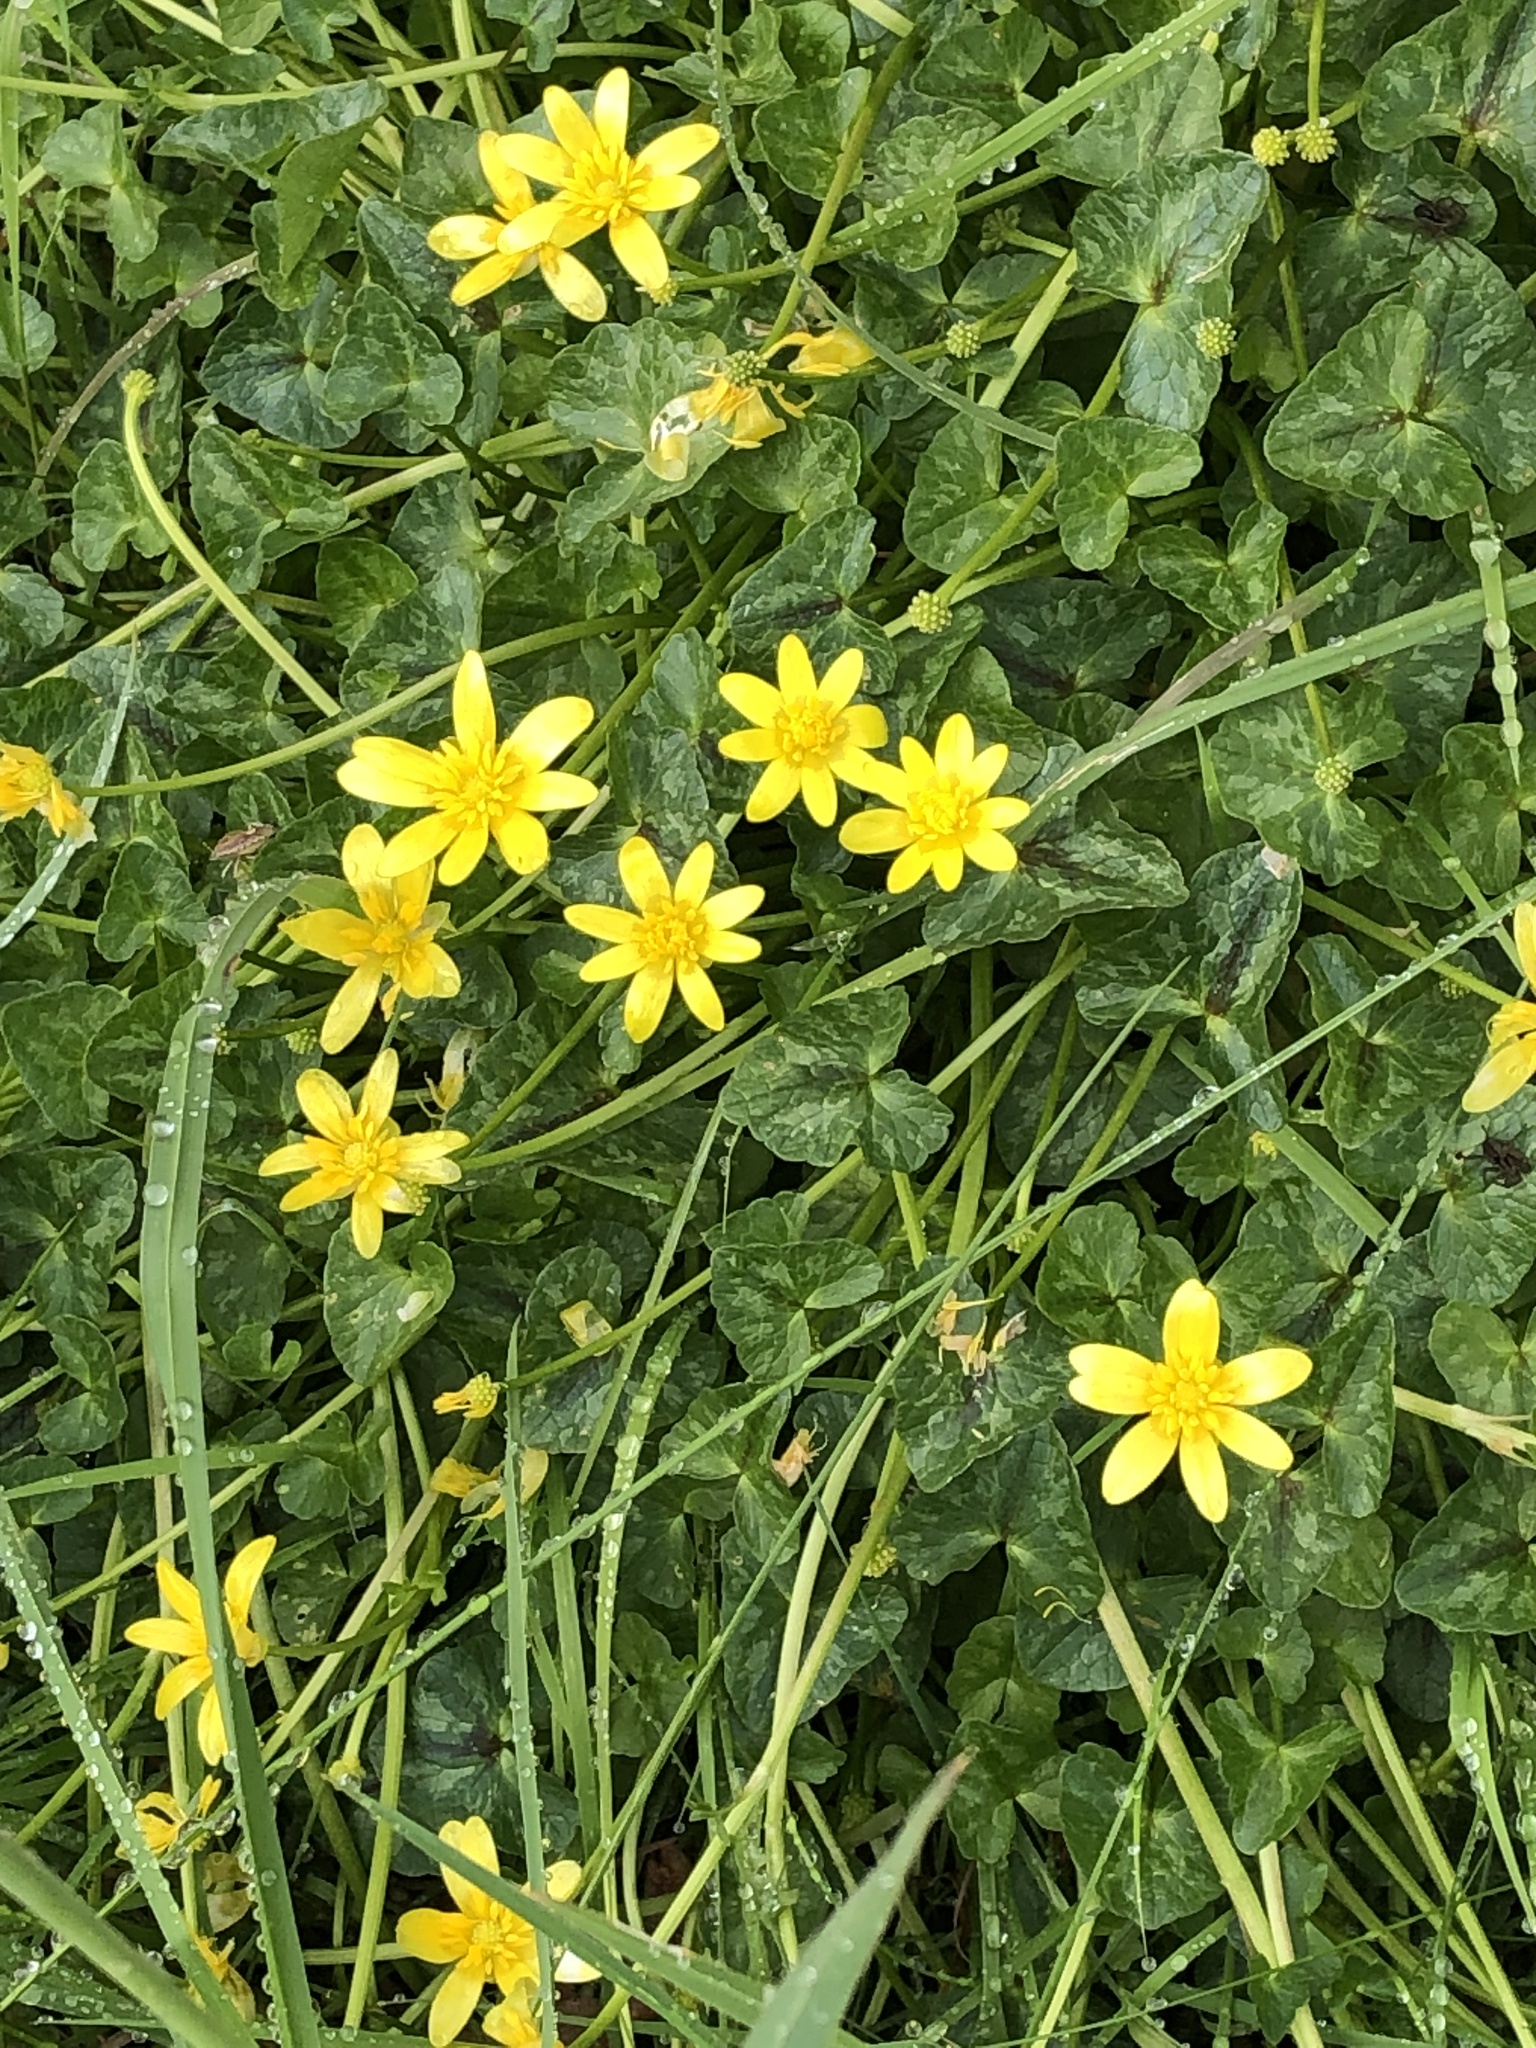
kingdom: Plantae
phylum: Tracheophyta
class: Magnoliopsida
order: Ranunculales
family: Ranunculaceae
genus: Ficaria
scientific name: Ficaria verna
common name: Lesser celandine
